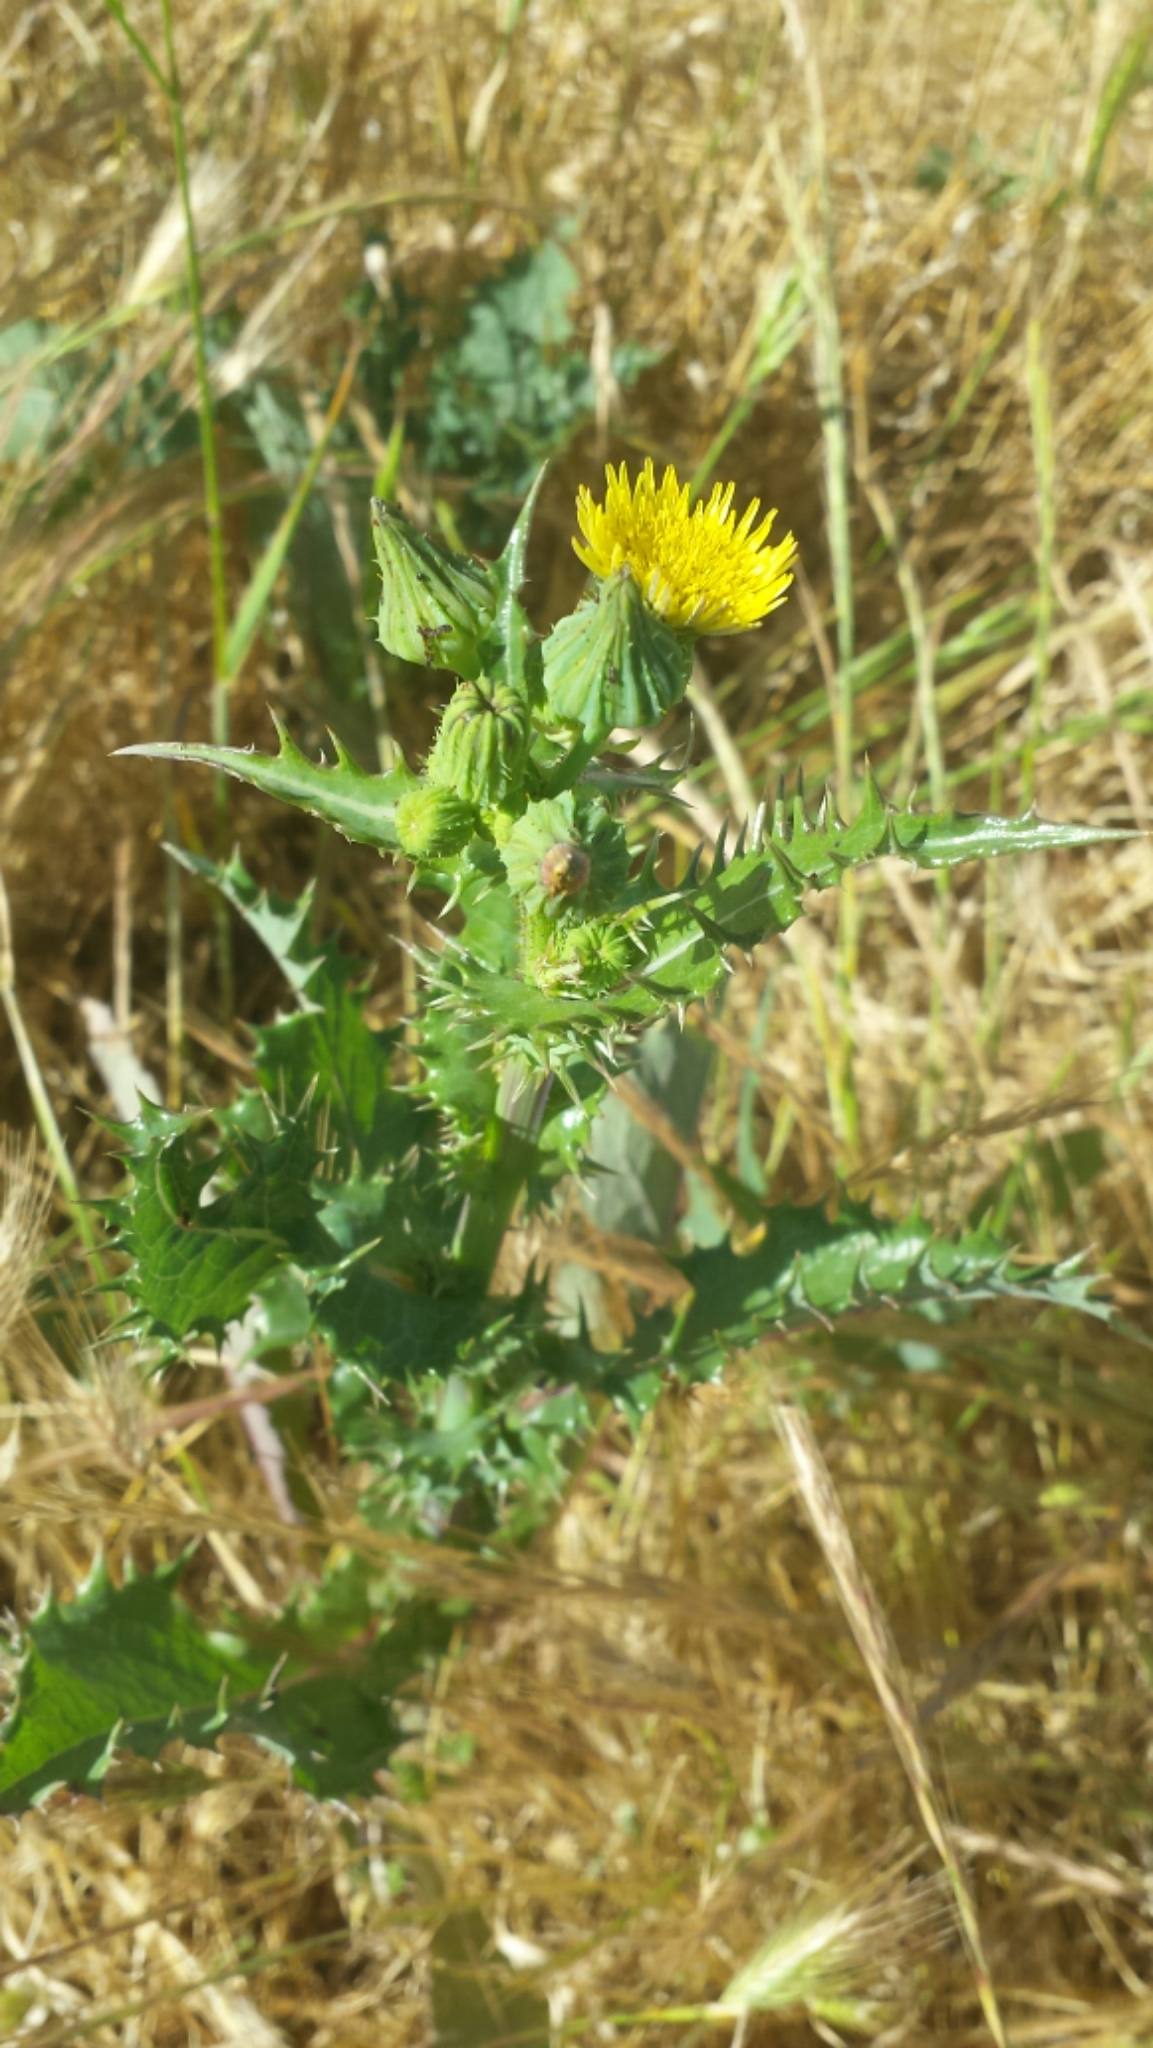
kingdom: Plantae
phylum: Tracheophyta
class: Magnoliopsida
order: Asterales
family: Asteraceae
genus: Sonchus
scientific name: Sonchus asper
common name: Prickly sow-thistle
